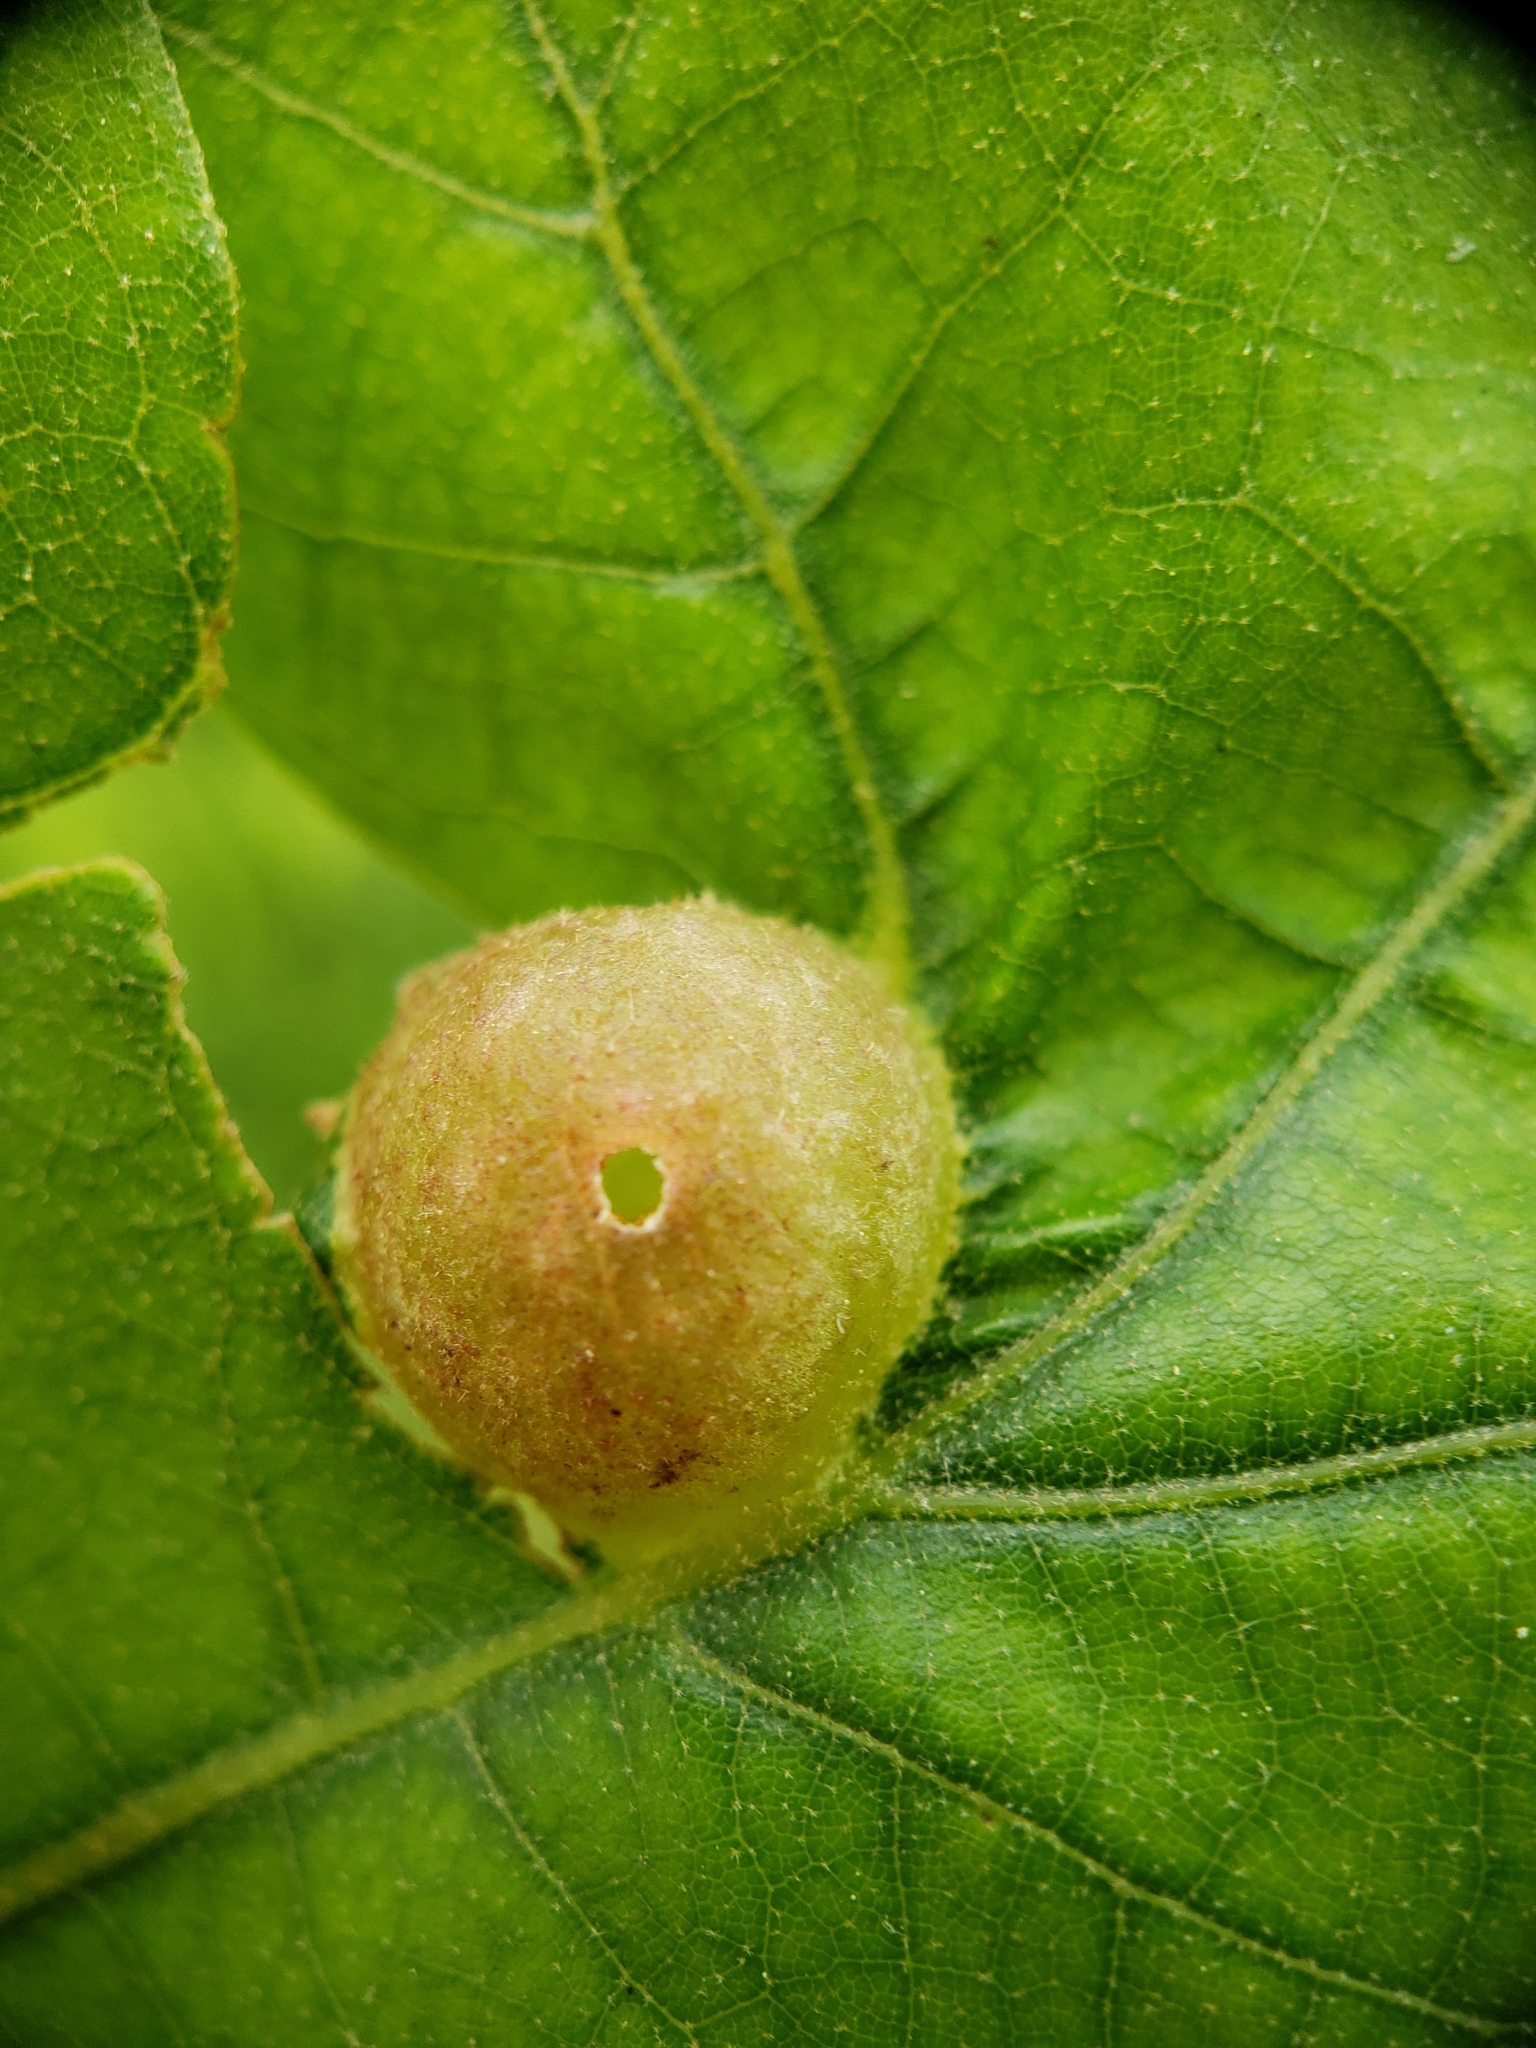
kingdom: Animalia
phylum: Arthropoda
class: Insecta
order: Hymenoptera
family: Cynipidae
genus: Dryocosmus
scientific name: Dryocosmus quercuspalustris
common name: Succulent oak gall wasp
